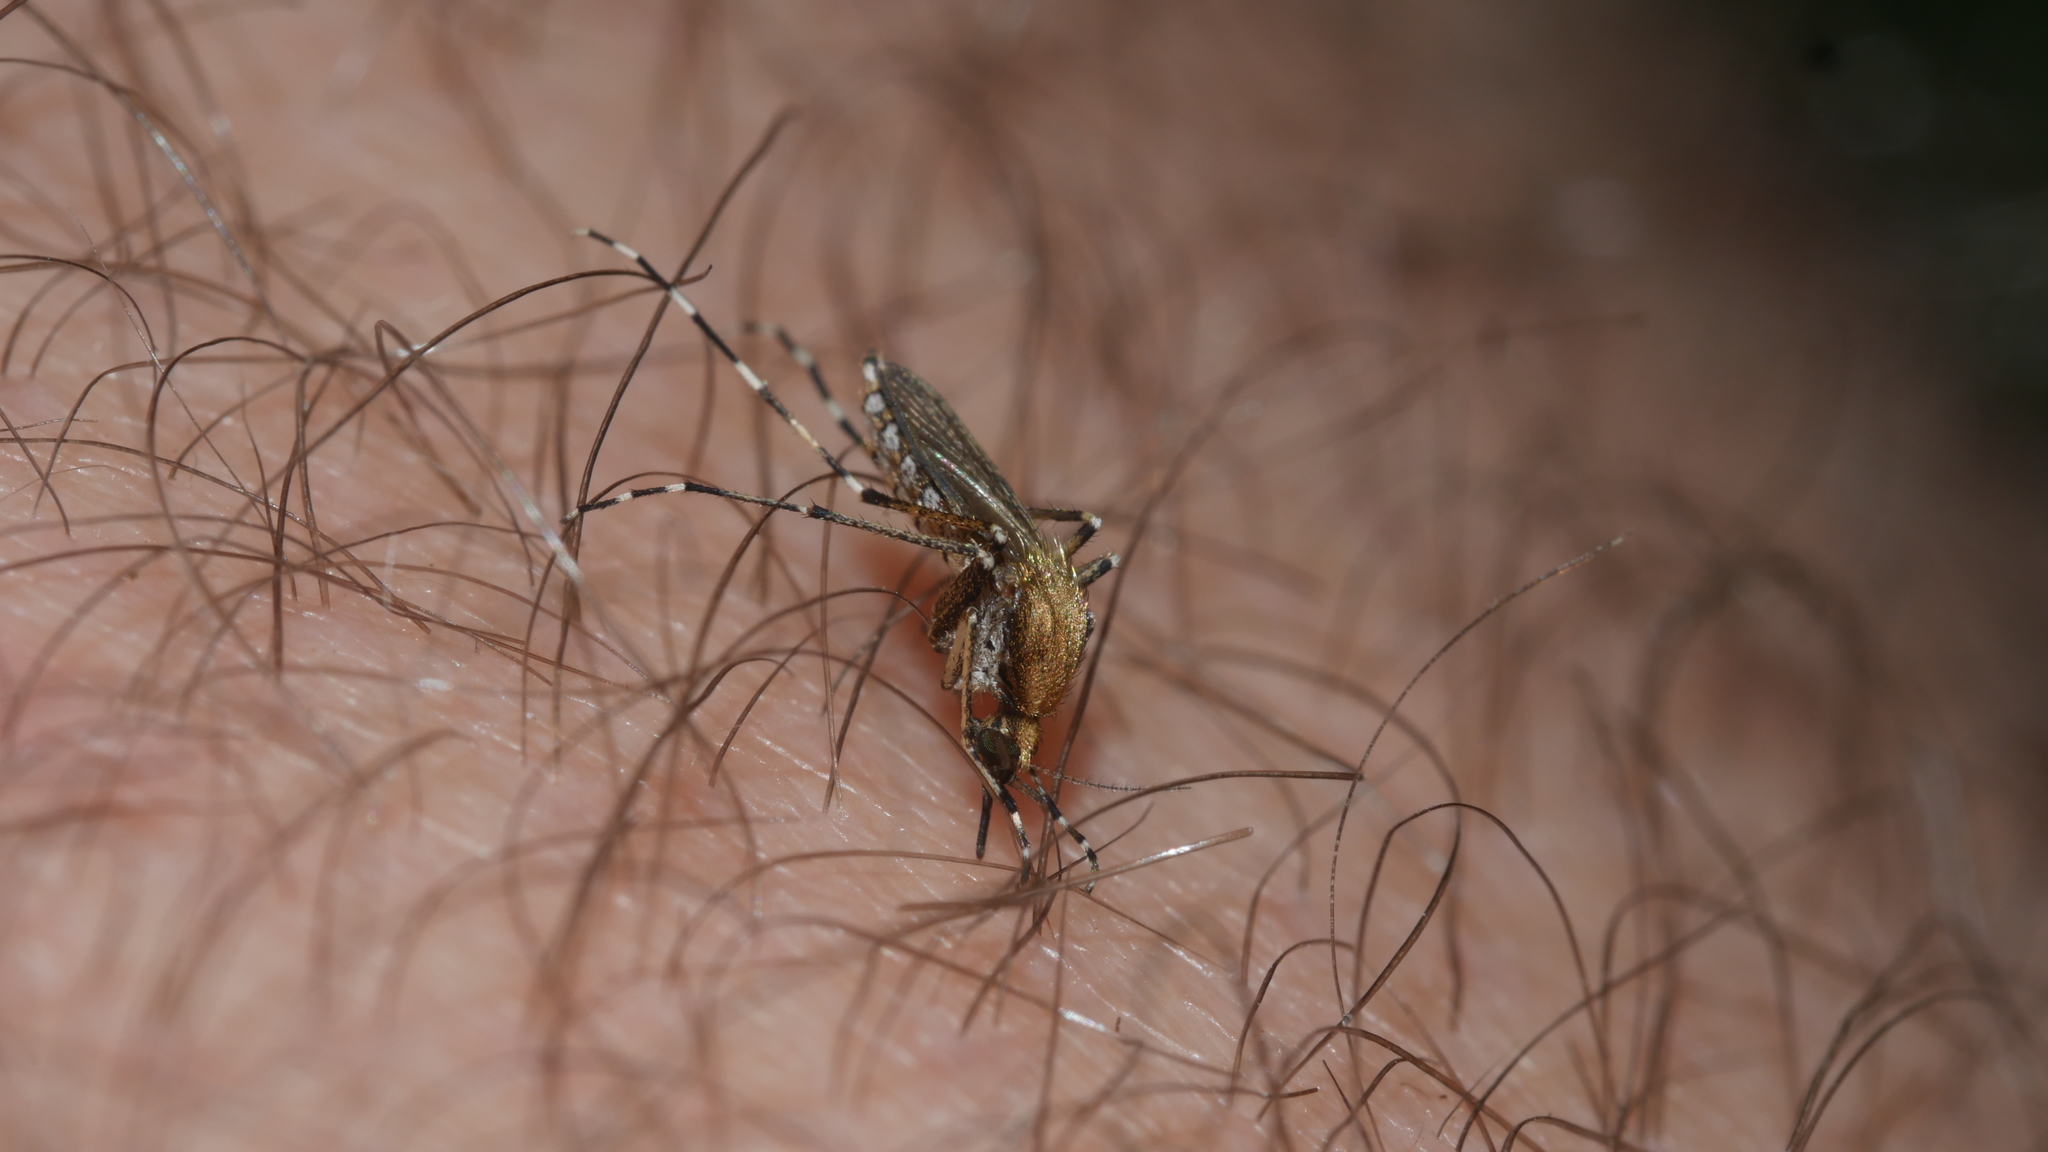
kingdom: Animalia
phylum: Arthropoda
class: Insecta
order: Diptera
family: Culicidae
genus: Aedes
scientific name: Aedes sollicitans
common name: Saltmarsh mosquito
